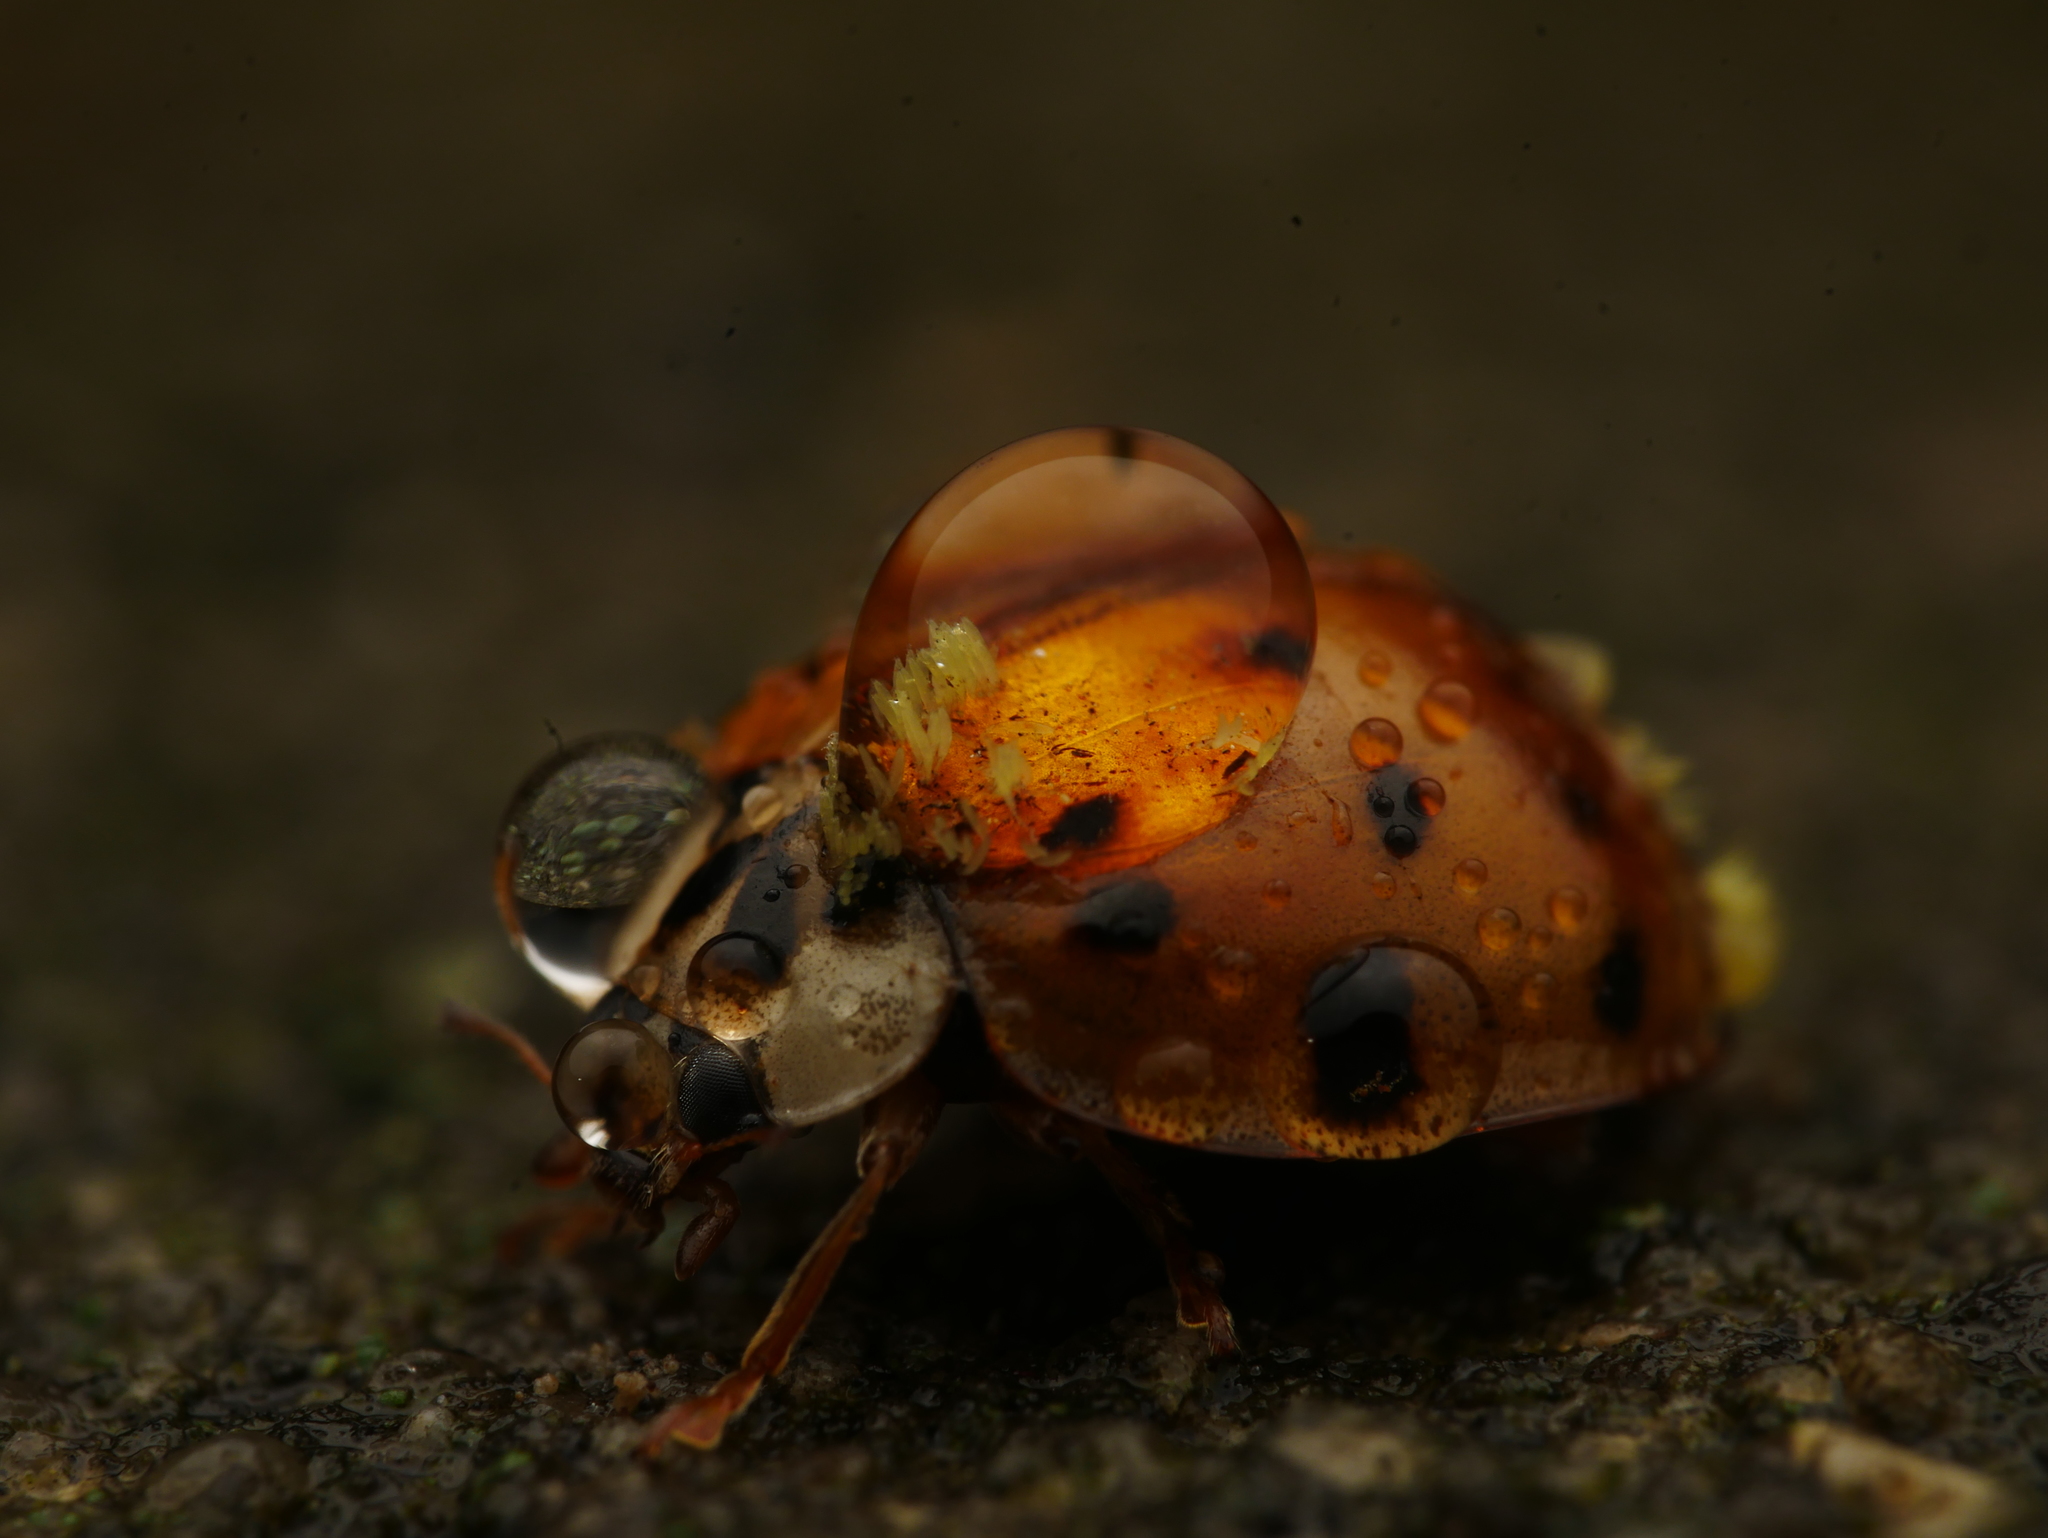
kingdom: Animalia
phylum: Arthropoda
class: Insecta
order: Coleoptera
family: Coccinellidae
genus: Harmonia
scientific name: Harmonia axyridis
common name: Harlequin ladybird
